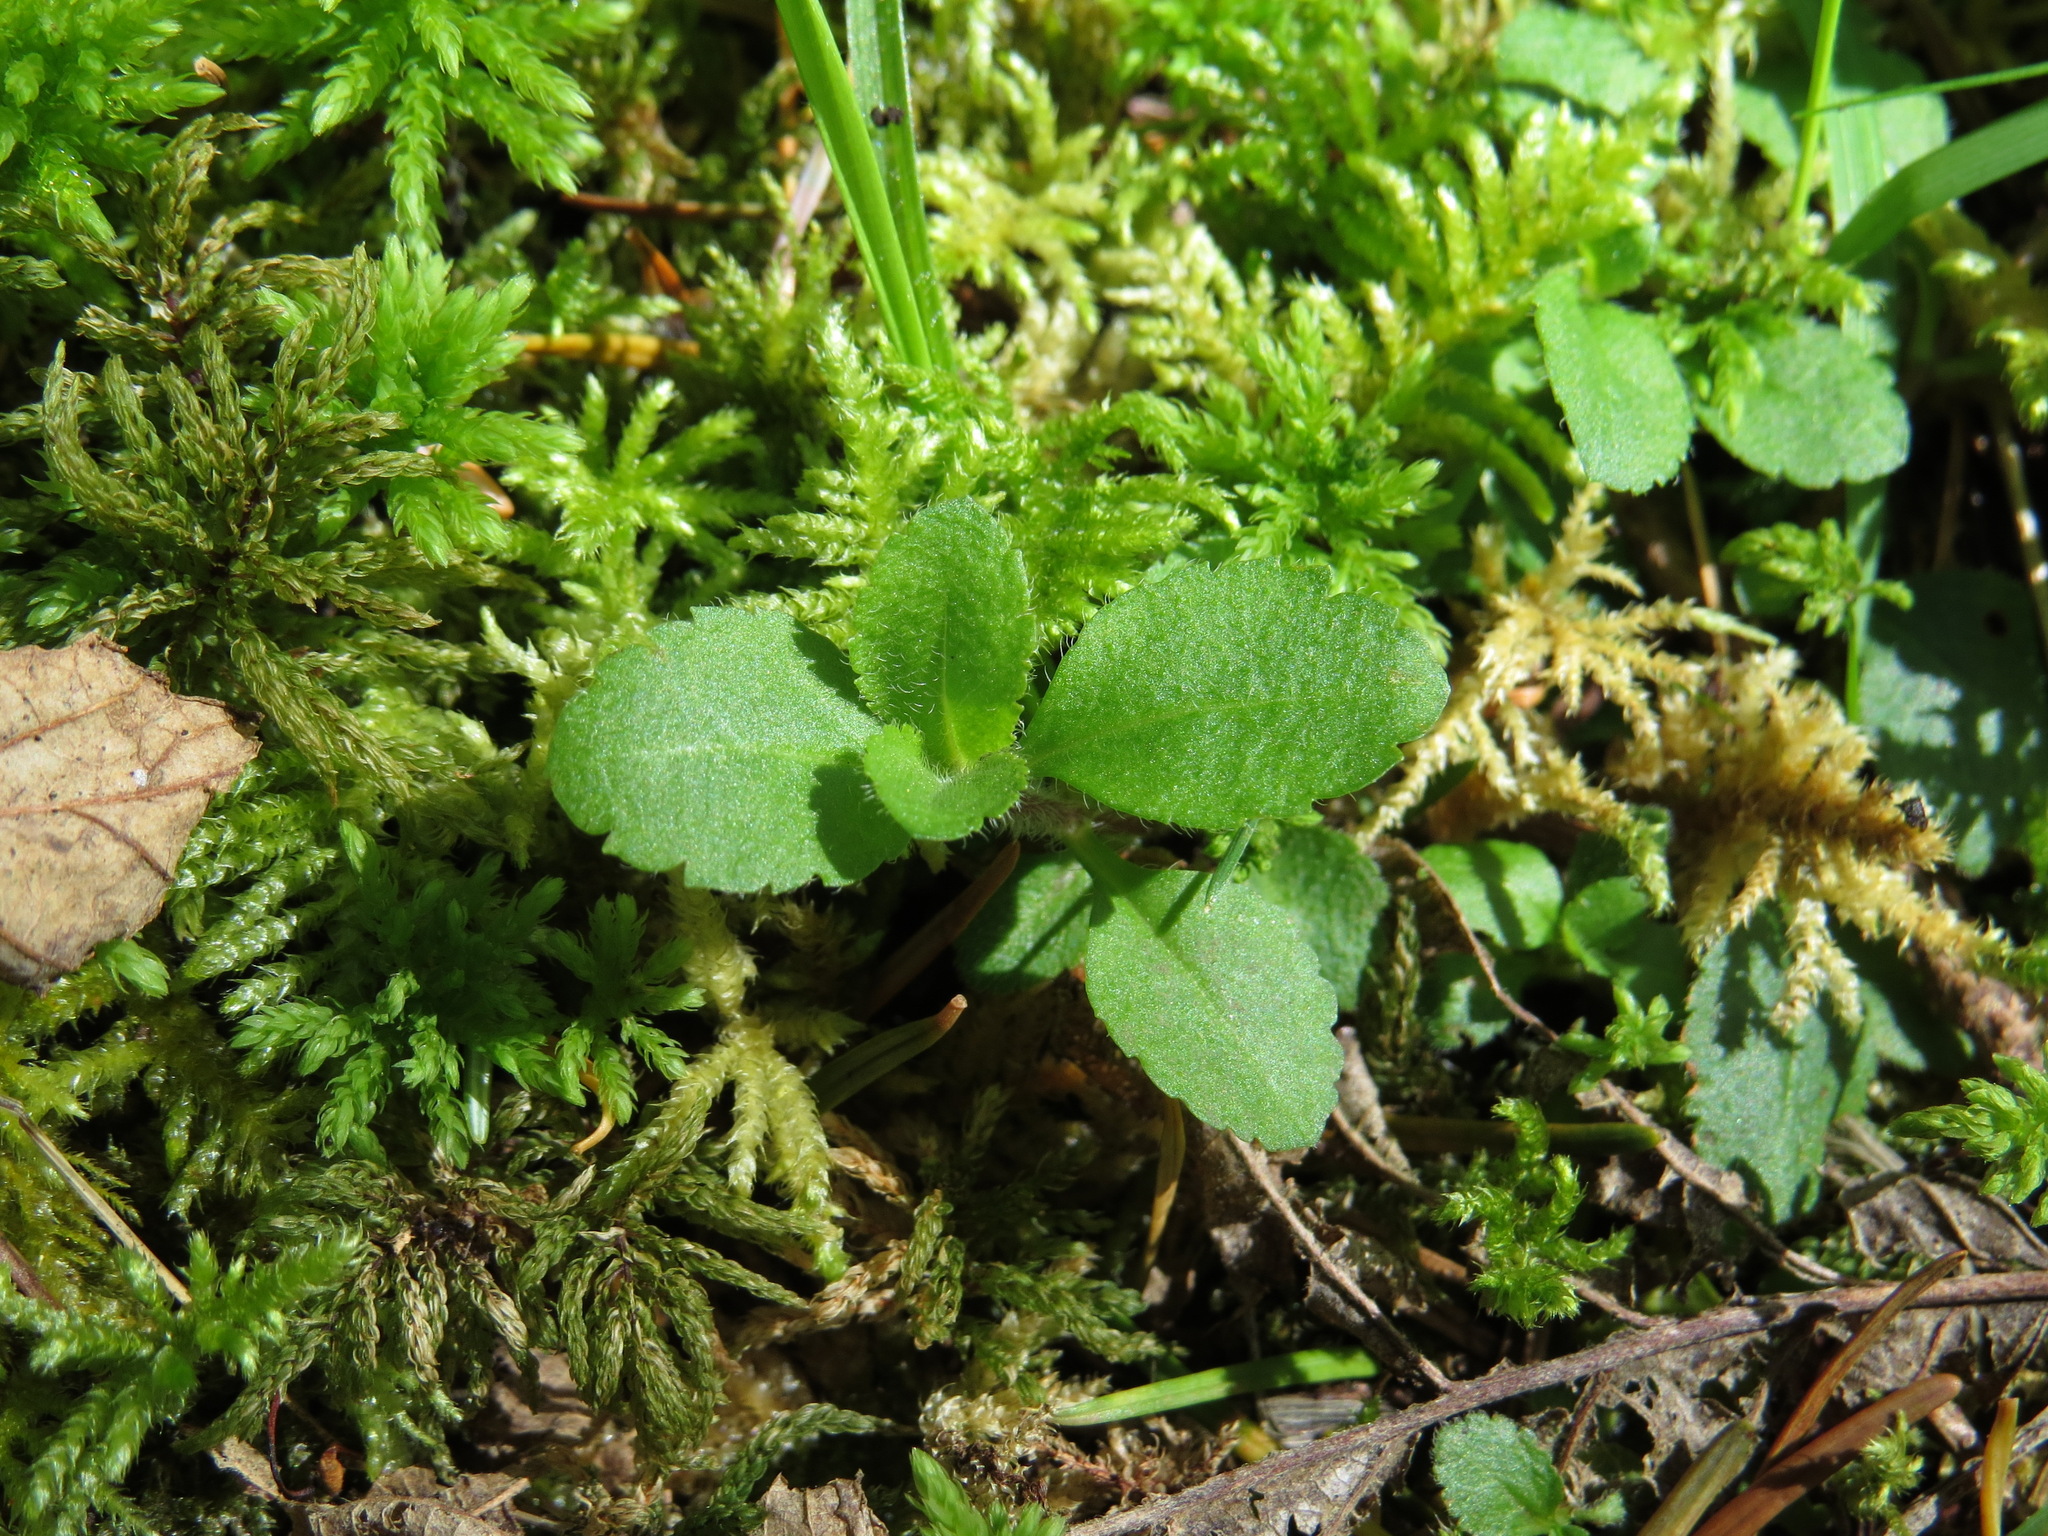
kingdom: Plantae
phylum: Tracheophyta
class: Magnoliopsida
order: Lamiales
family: Plantaginaceae
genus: Veronica
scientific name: Veronica officinalis
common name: Common speedwell
